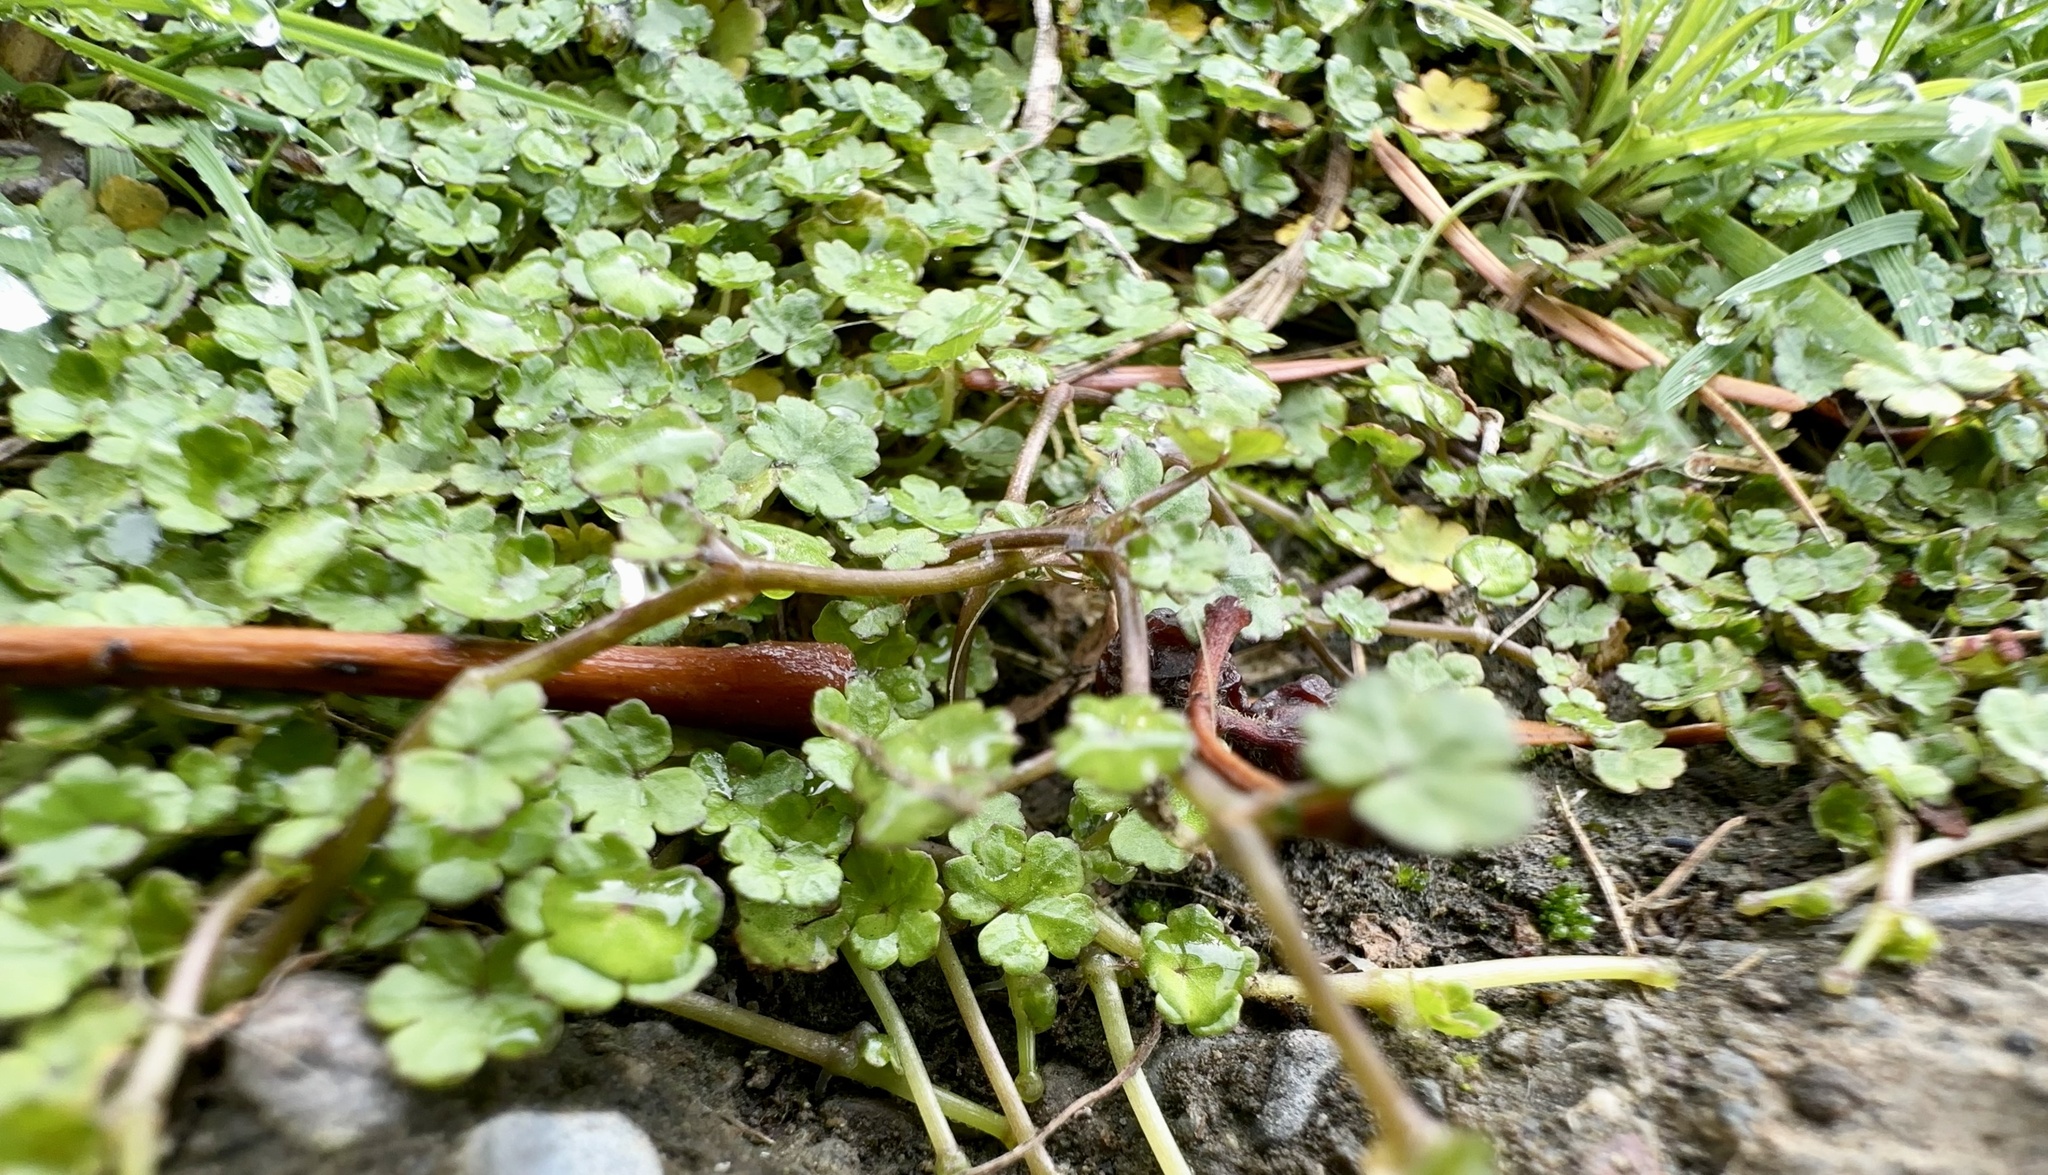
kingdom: Plantae
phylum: Tracheophyta
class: Magnoliopsida
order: Apiales
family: Araliaceae
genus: Hydrocotyle
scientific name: Hydrocotyle novae-zeelandiae
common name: New zealand pennywort
